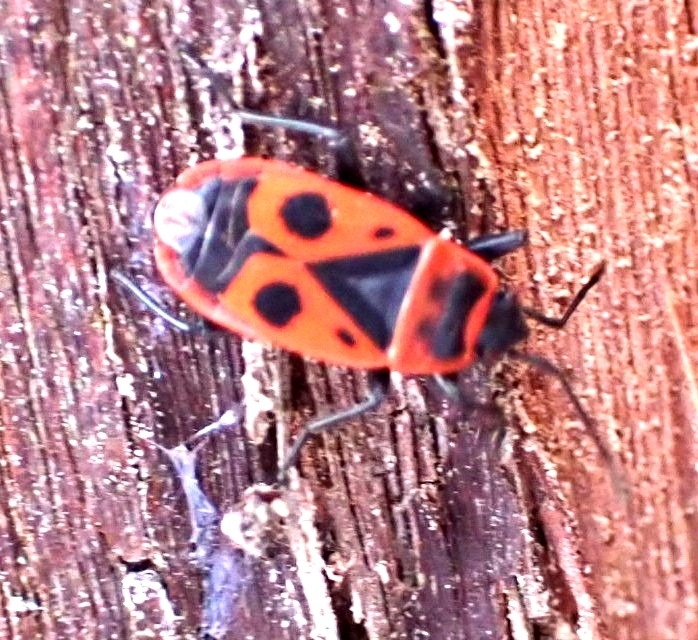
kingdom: Animalia
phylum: Arthropoda
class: Insecta
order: Hemiptera
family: Pyrrhocoridae
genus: Pyrrhocoris
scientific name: Pyrrhocoris apterus
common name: Firebug
